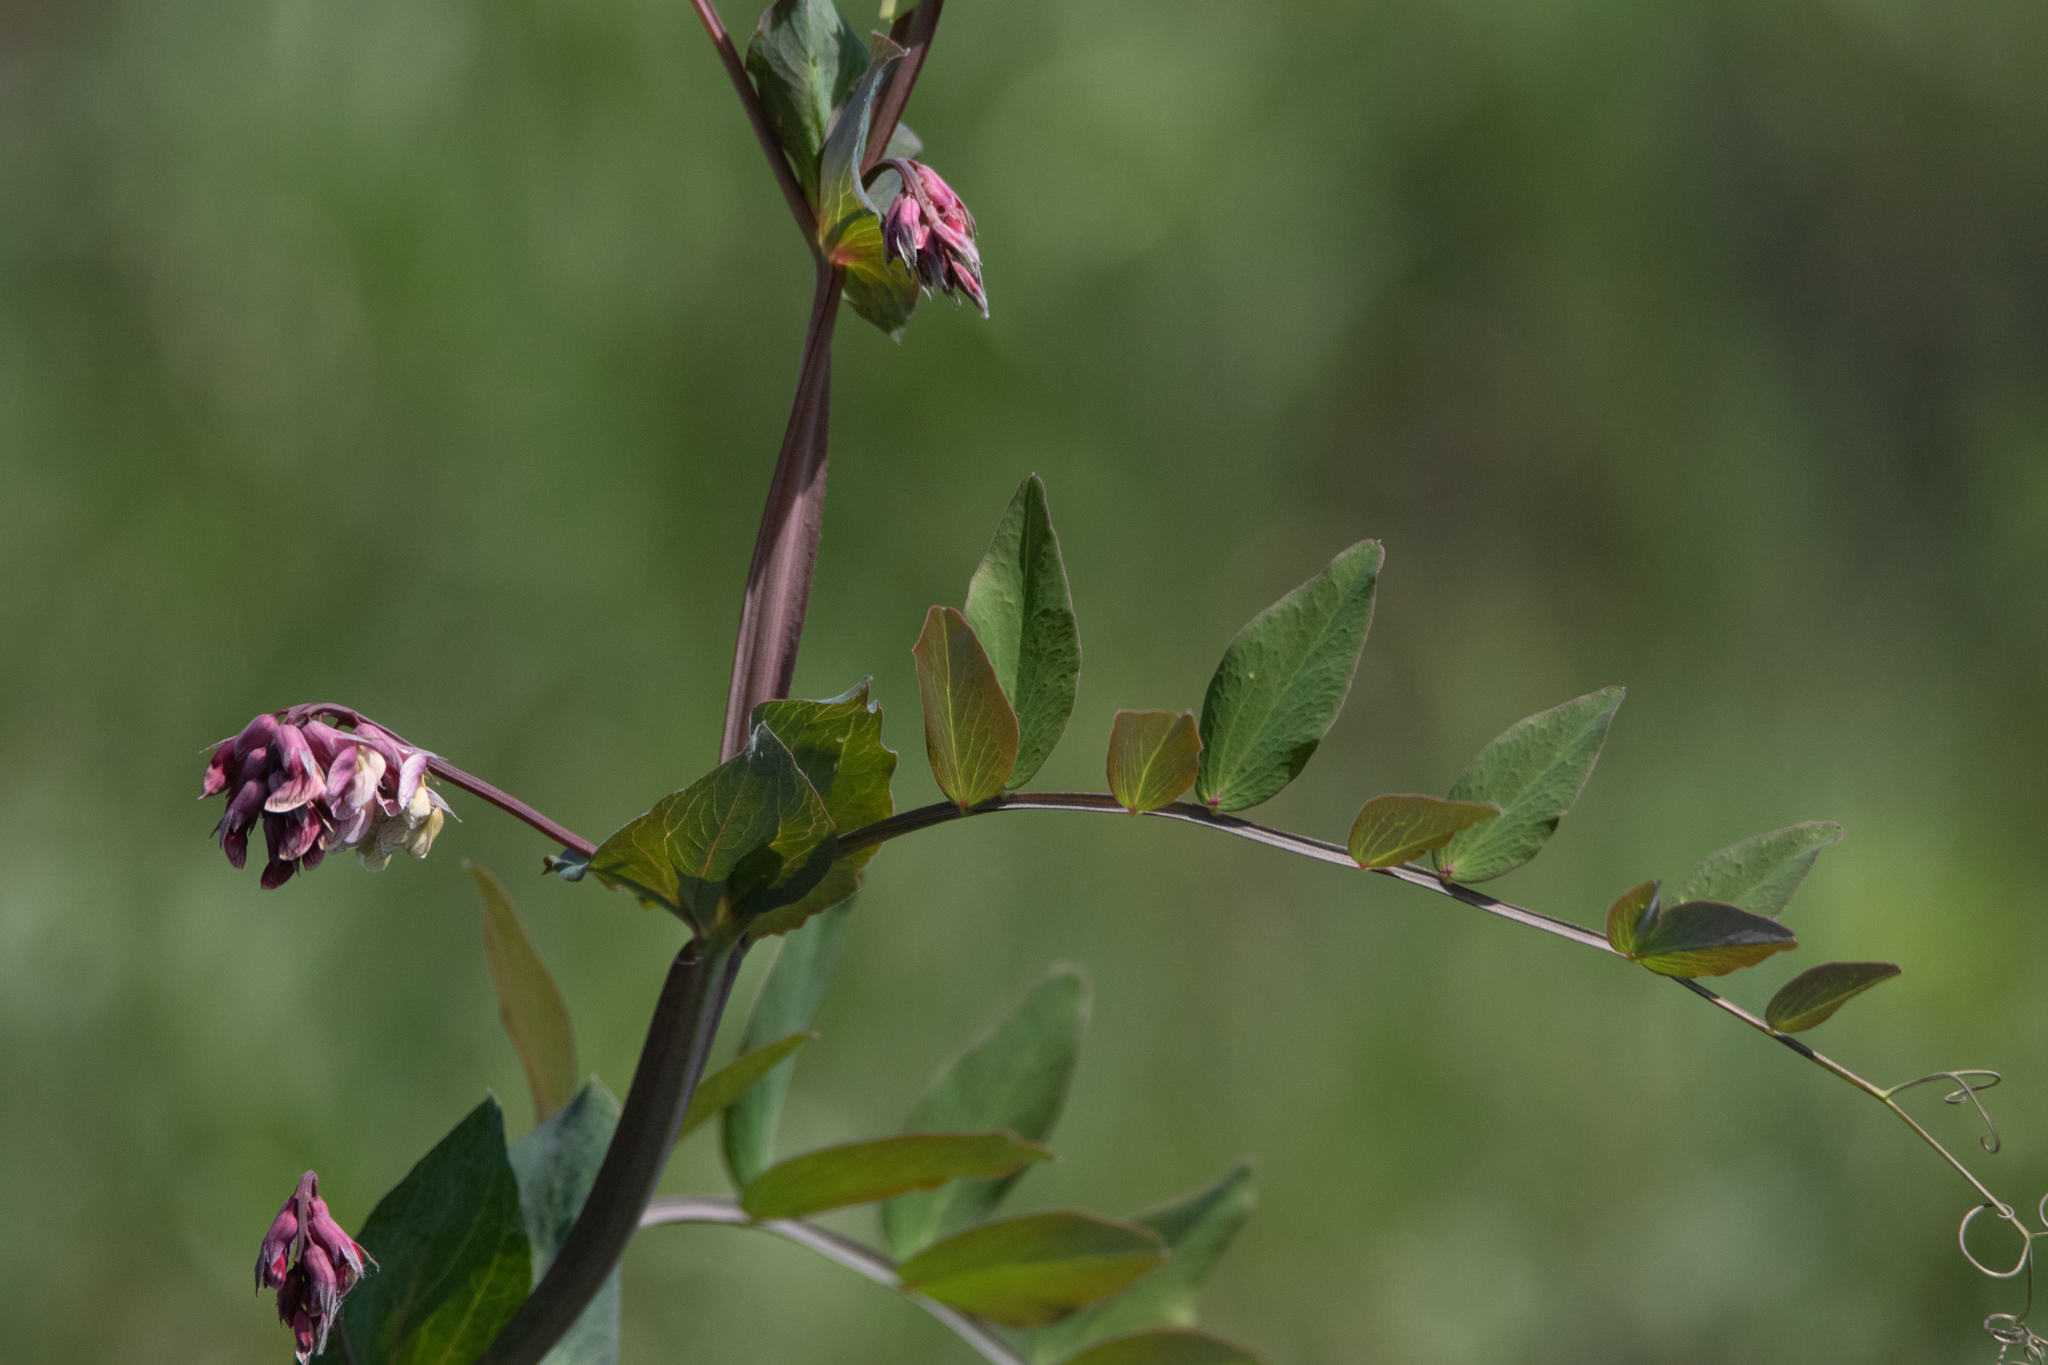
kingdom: Plantae
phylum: Tracheophyta
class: Magnoliopsida
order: Fabales
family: Fabaceae
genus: Lathyrus
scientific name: Lathyrus pisiformis
